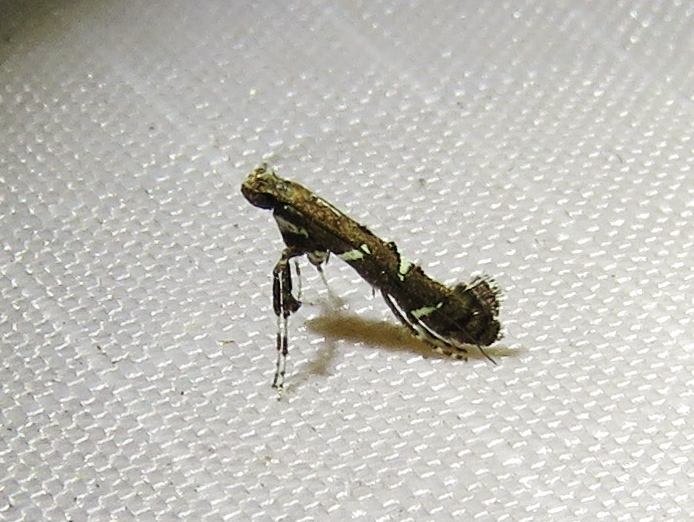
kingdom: Animalia
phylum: Arthropoda
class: Insecta
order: Lepidoptera
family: Gracillariidae
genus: Caloptilia
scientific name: Caloptilia triadicae
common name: Tallow leaf roller
